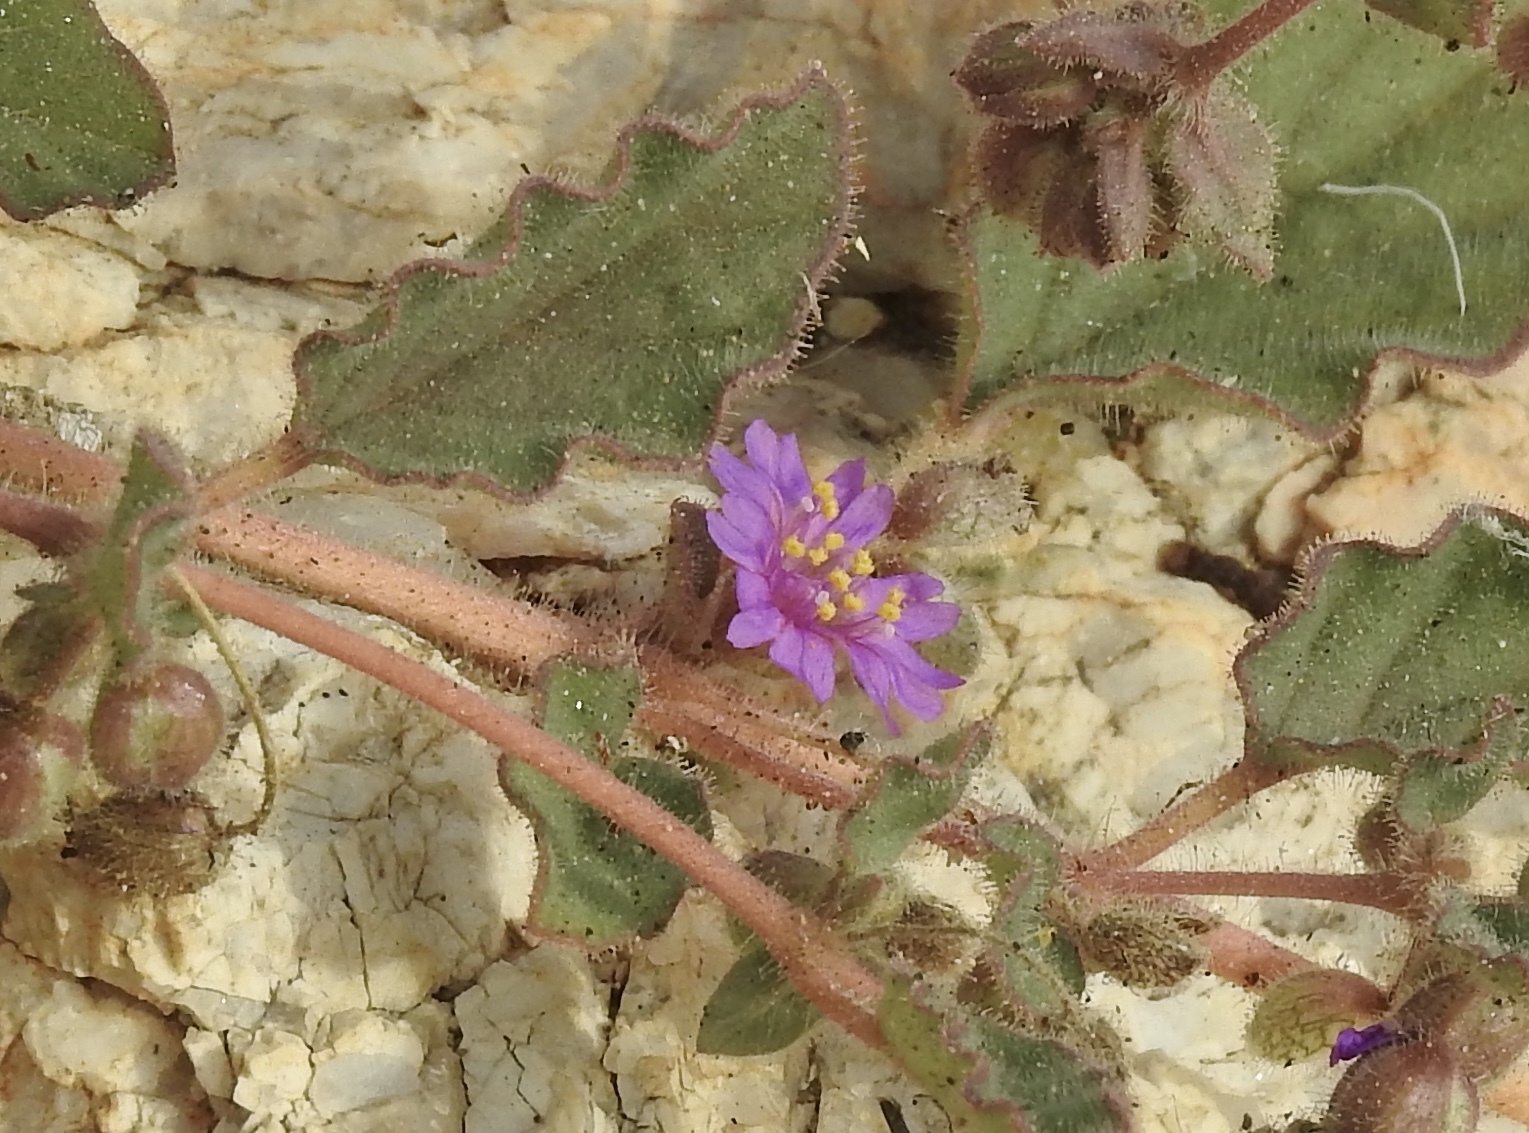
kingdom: Plantae
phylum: Tracheophyta
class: Magnoliopsida
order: Caryophyllales
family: Nyctaginaceae
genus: Allionia
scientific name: Allionia incarnata
